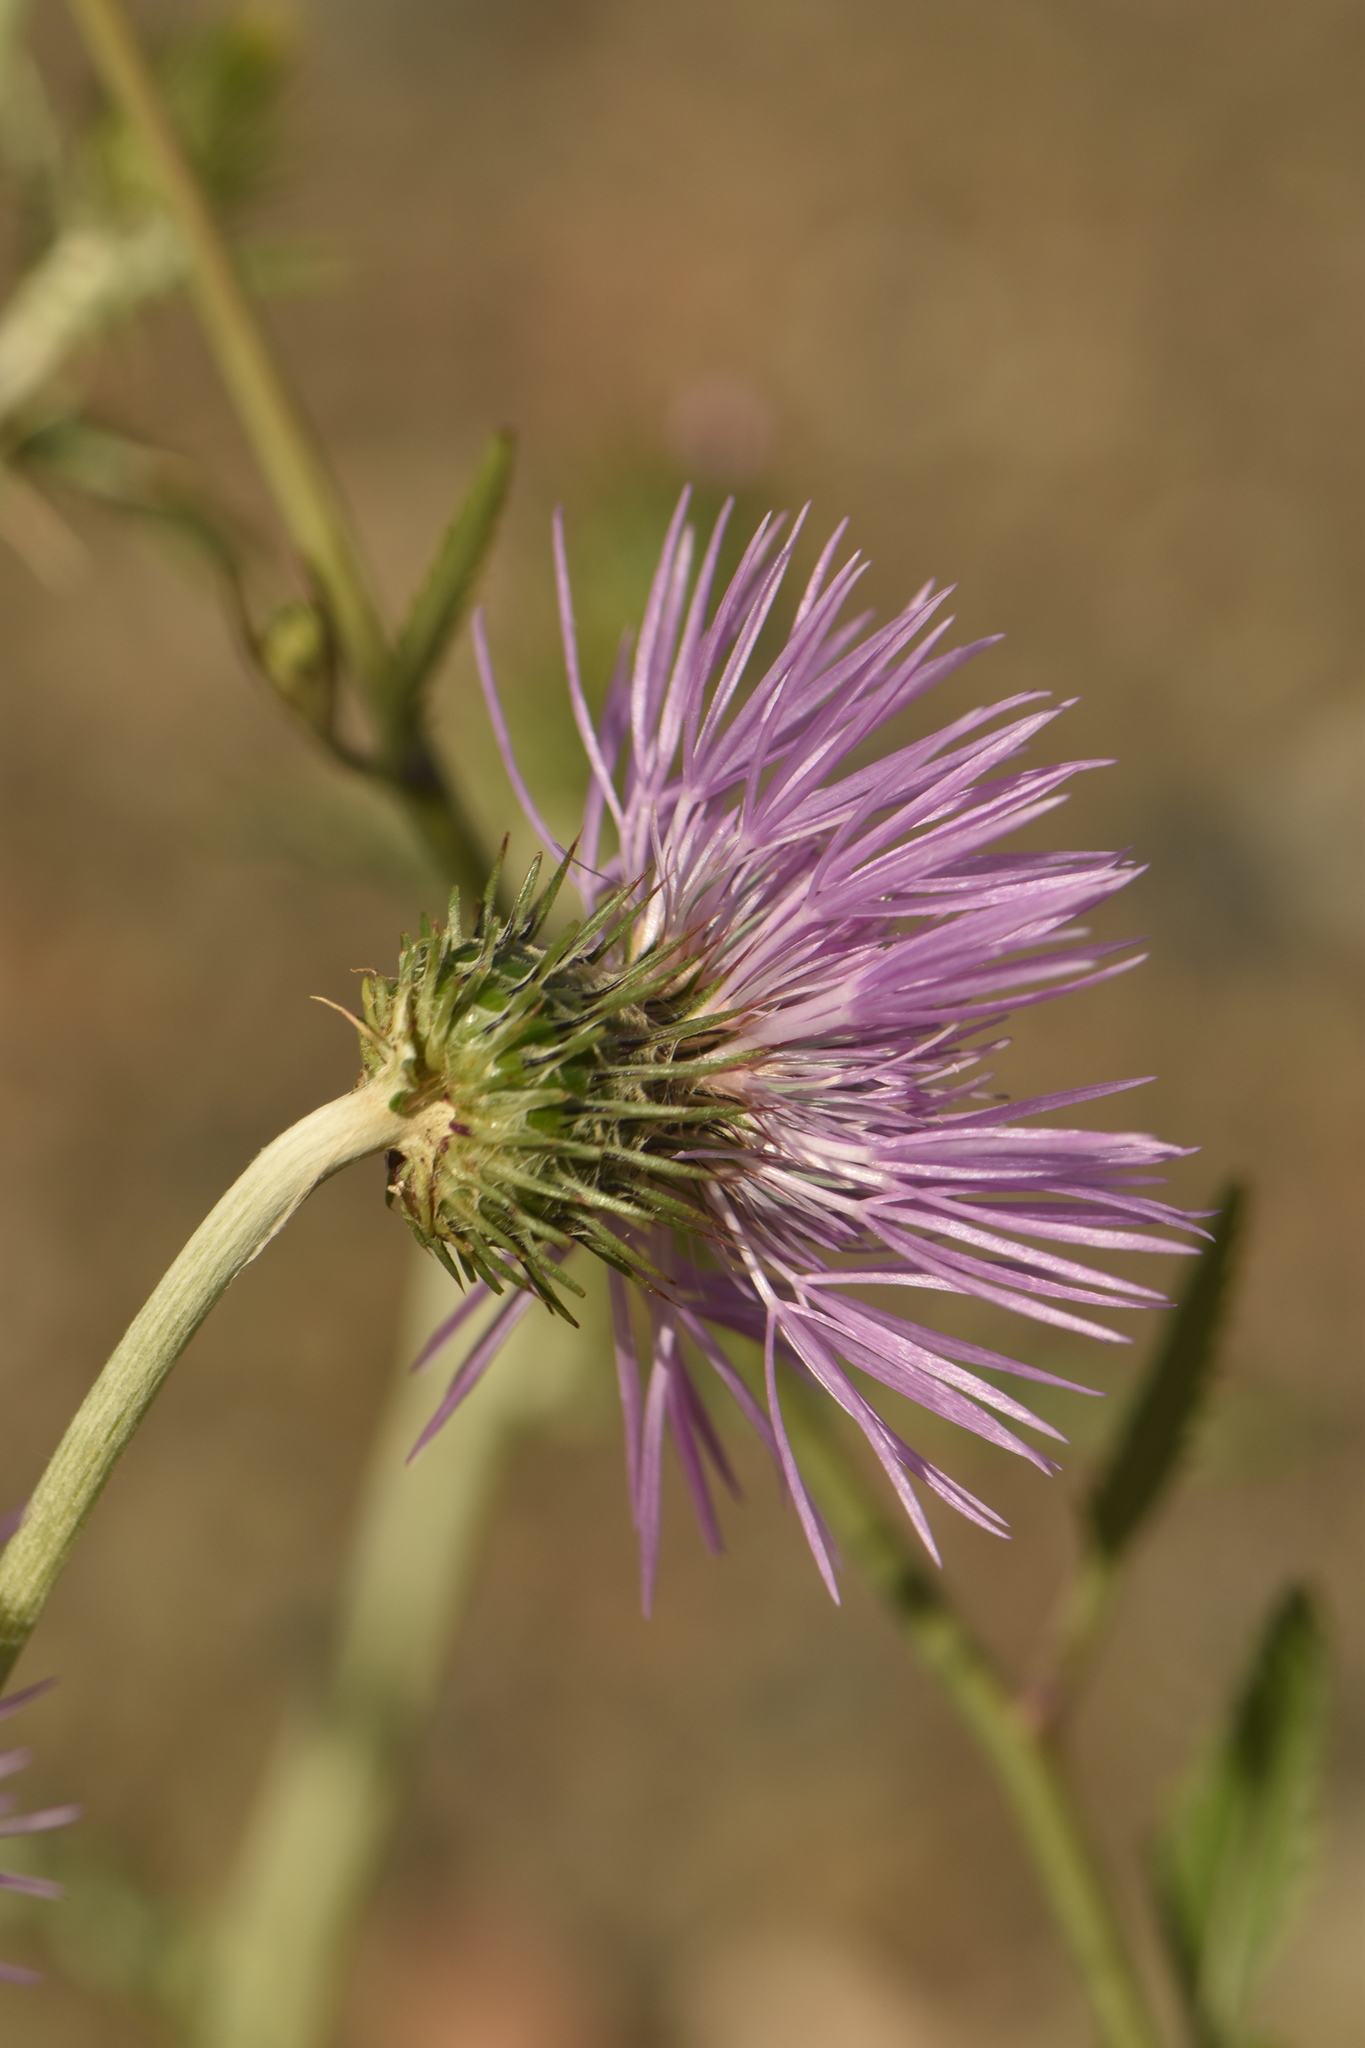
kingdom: Plantae
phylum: Tracheophyta
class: Magnoliopsida
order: Asterales
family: Asteraceae
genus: Galactites
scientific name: Galactites tomentosa
